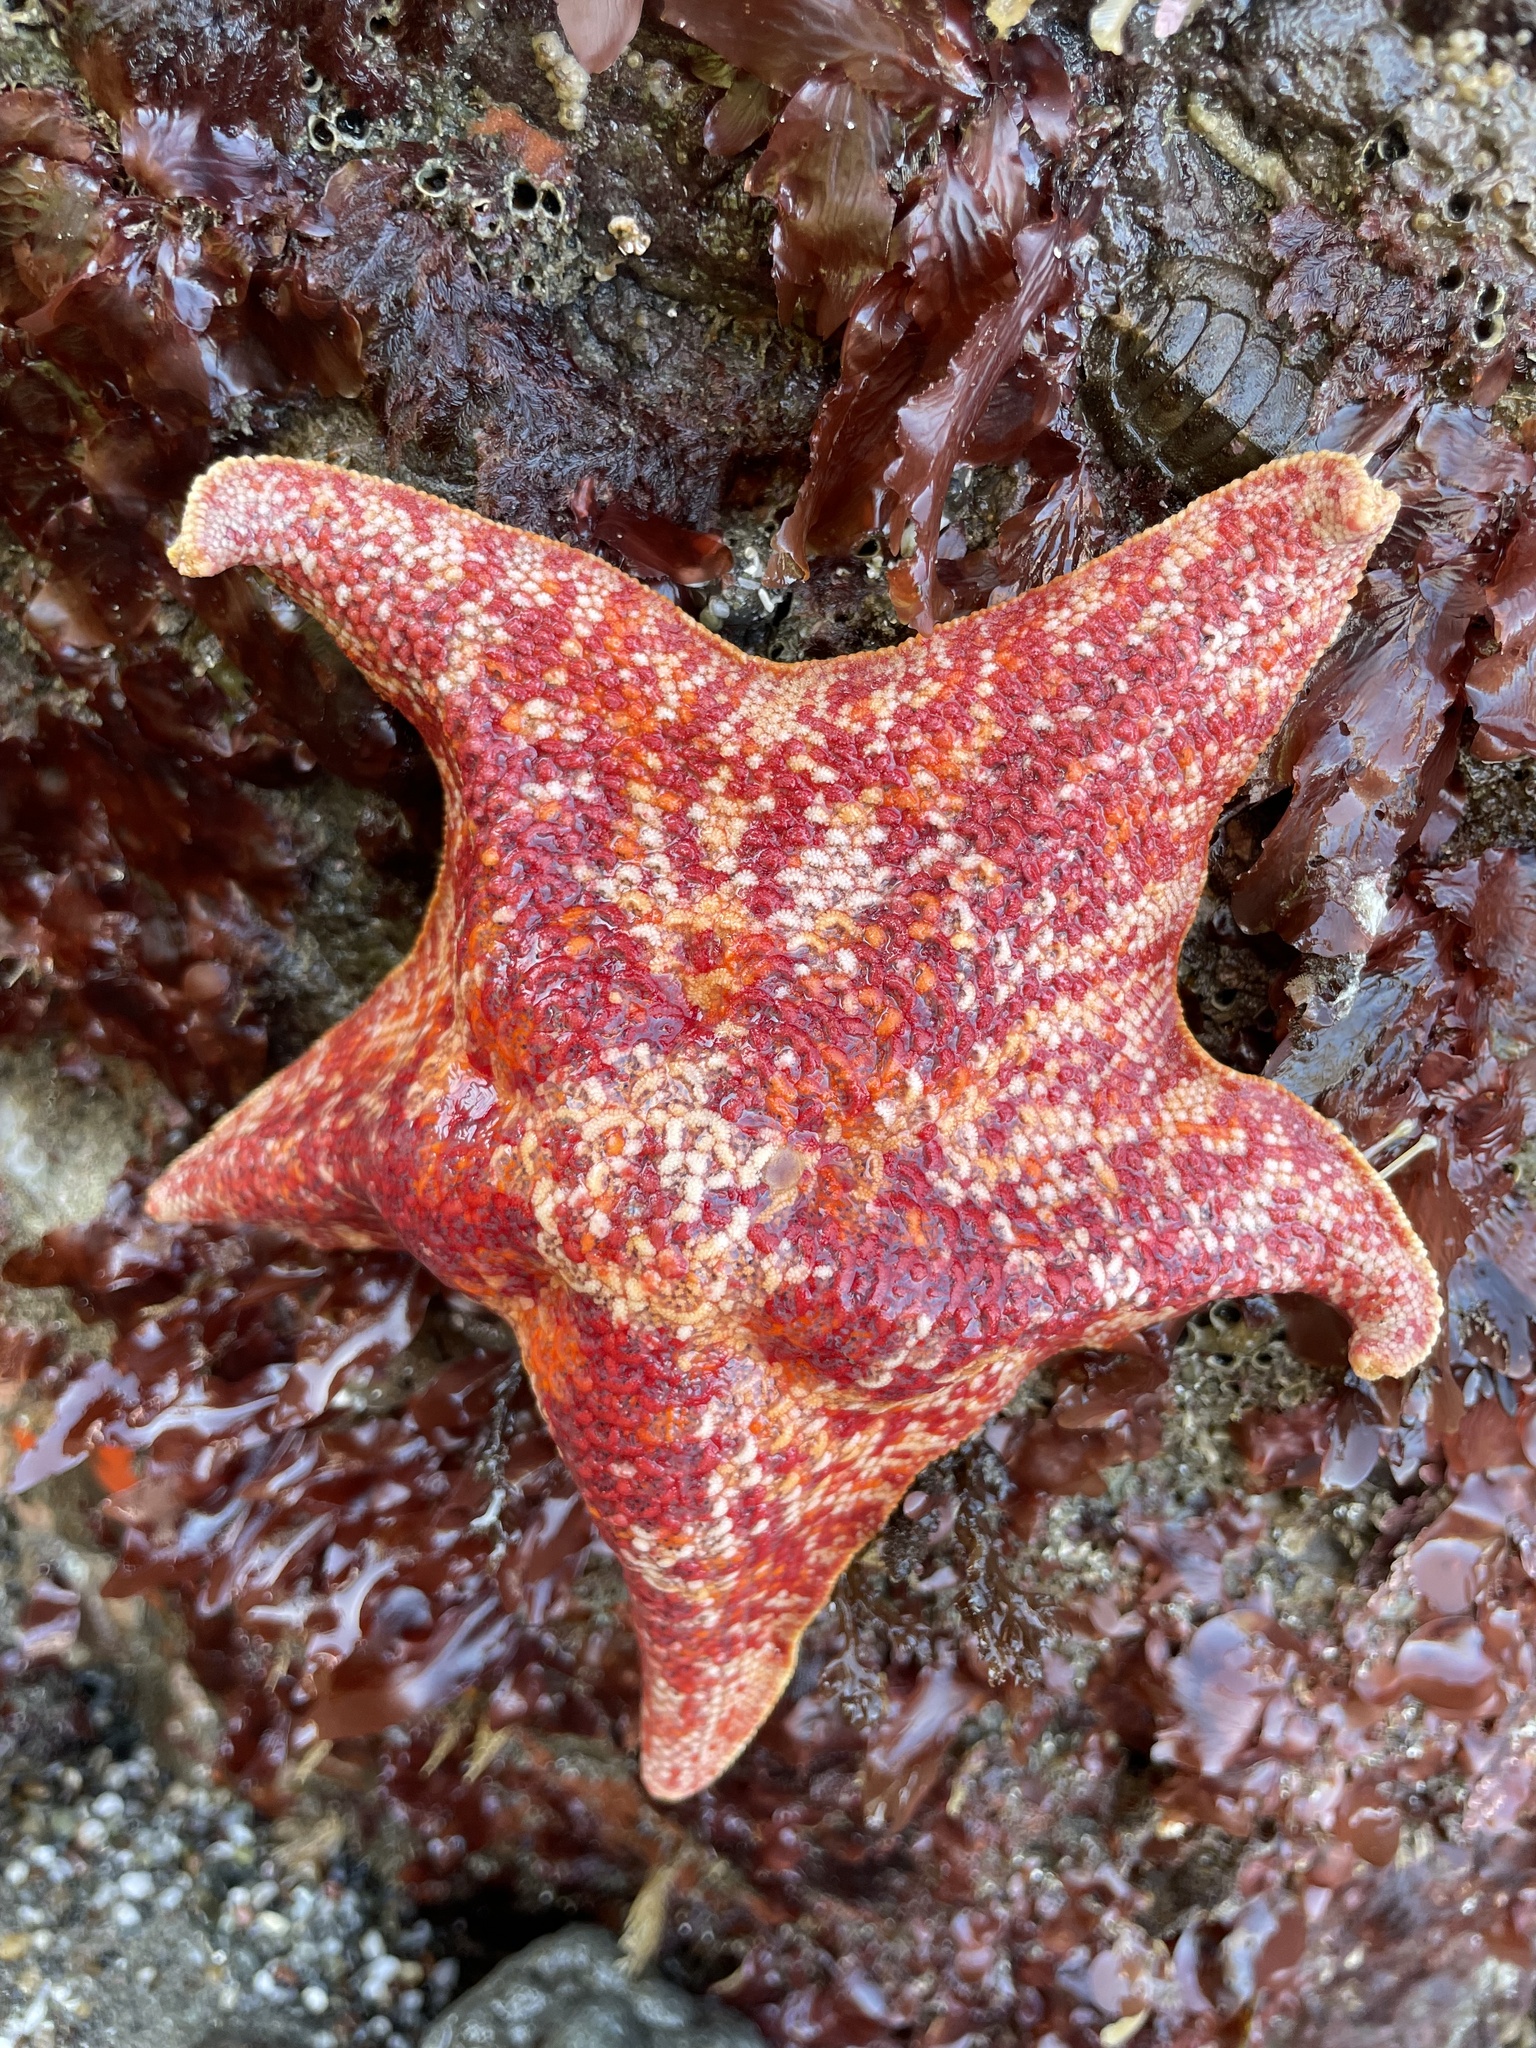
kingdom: Animalia
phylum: Echinodermata
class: Asteroidea
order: Valvatida
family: Asterinidae
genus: Patiria
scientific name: Patiria miniata
